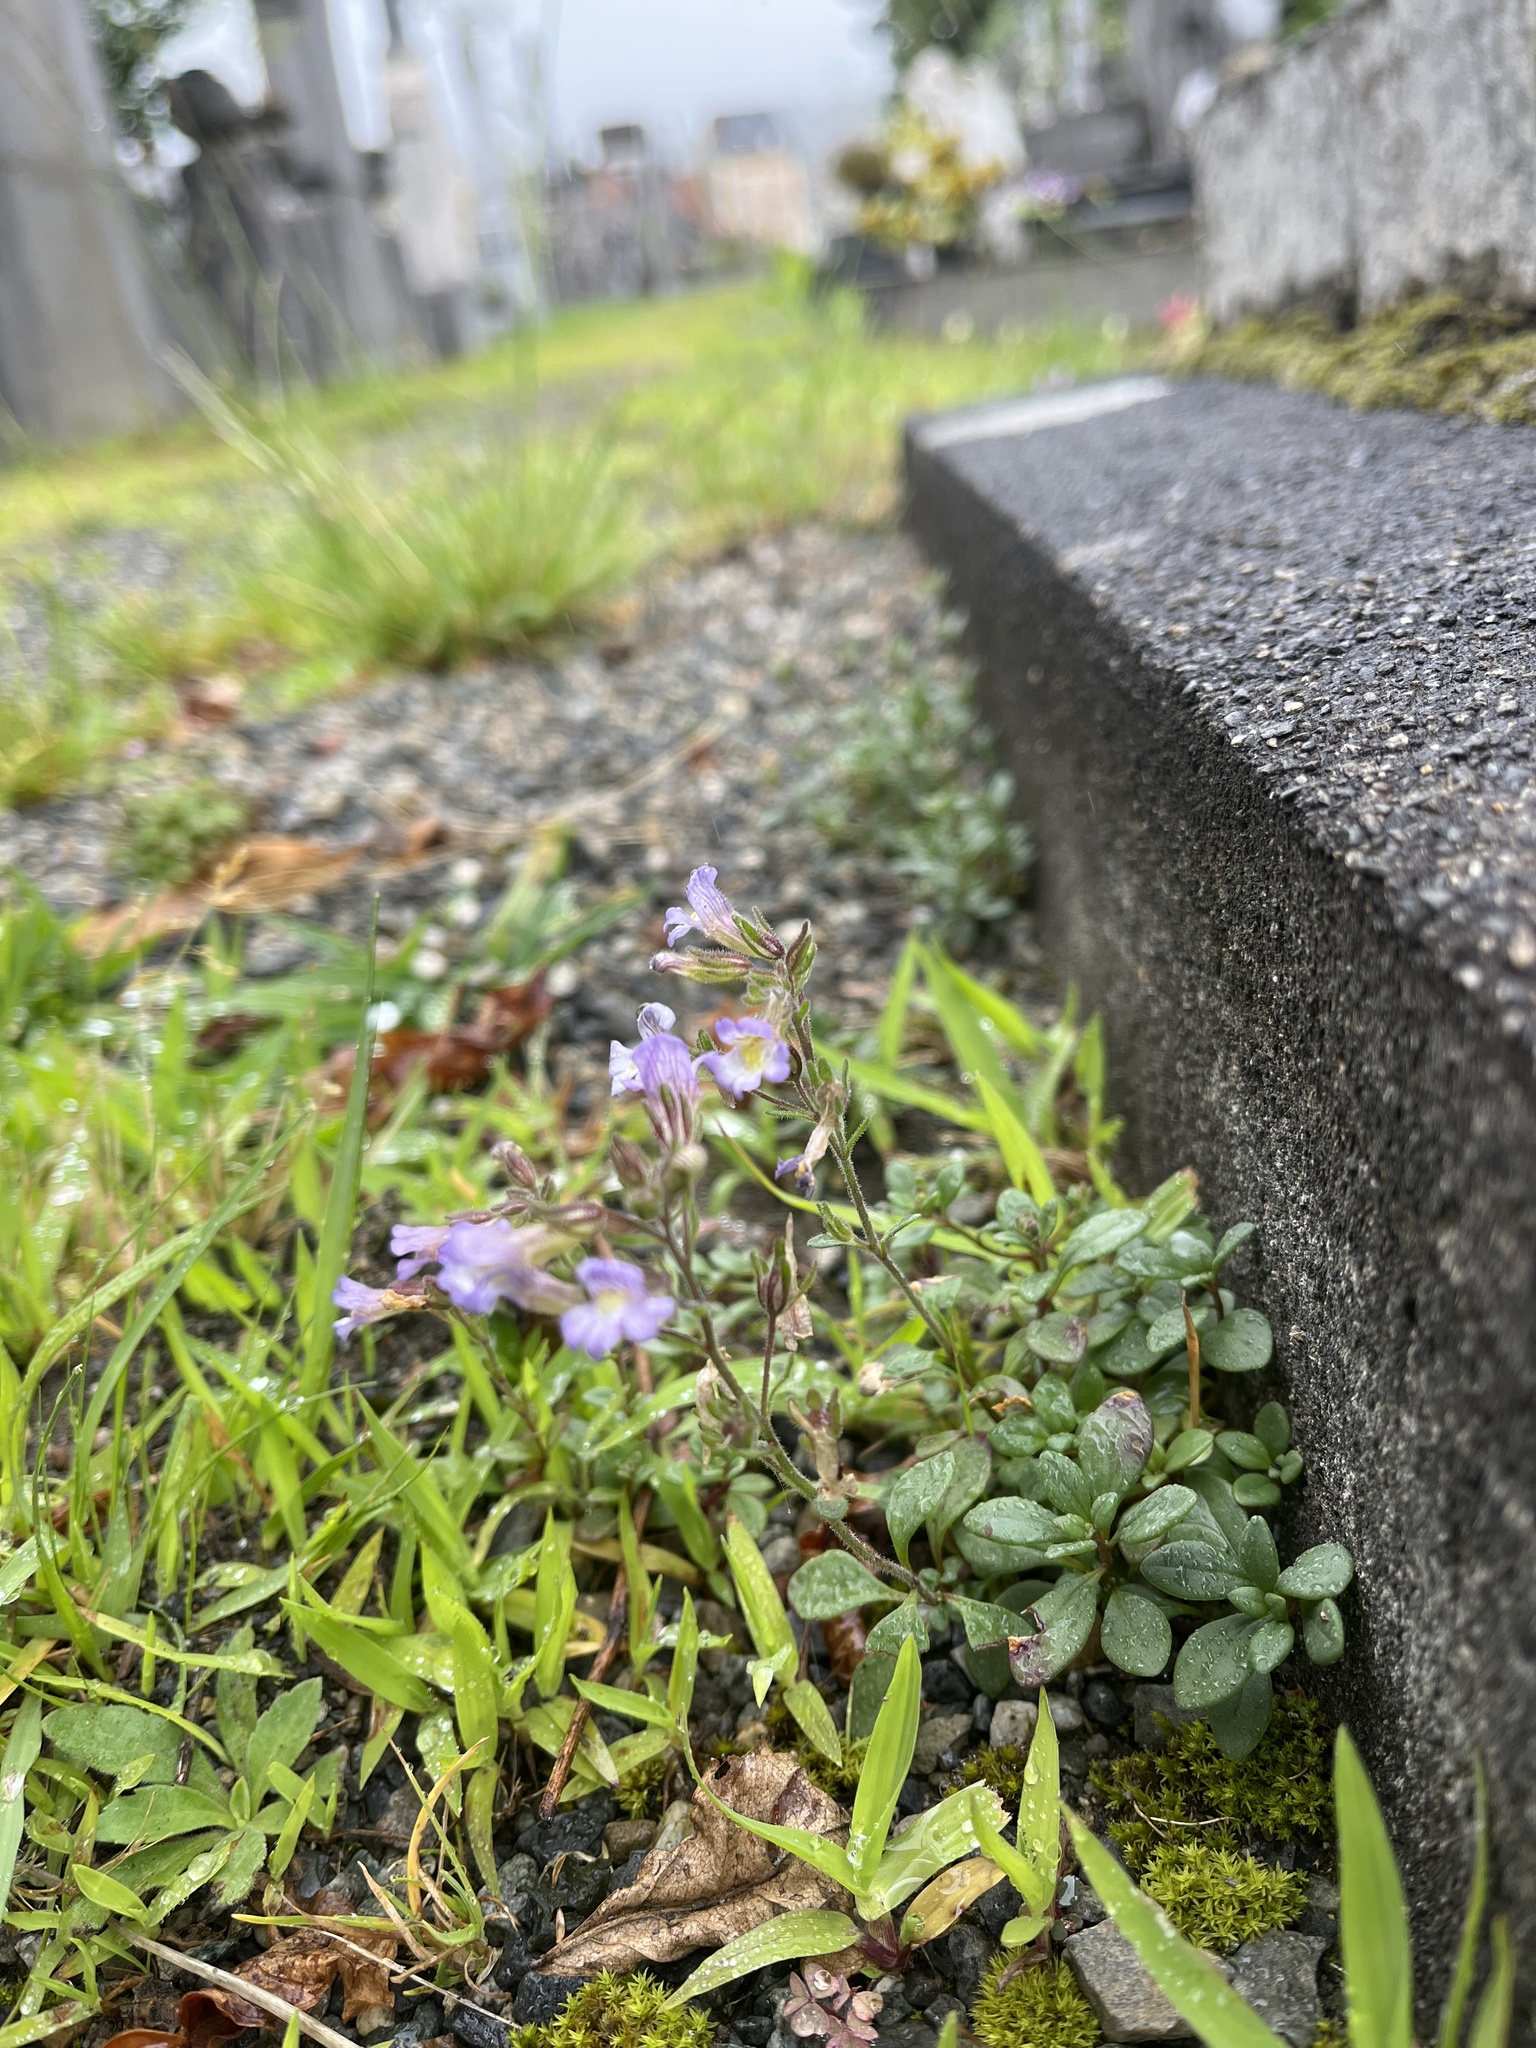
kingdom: Plantae
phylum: Tracheophyta
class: Magnoliopsida
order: Lamiales
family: Plantaginaceae
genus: Chaenorhinum
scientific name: Chaenorhinum origanifolium
